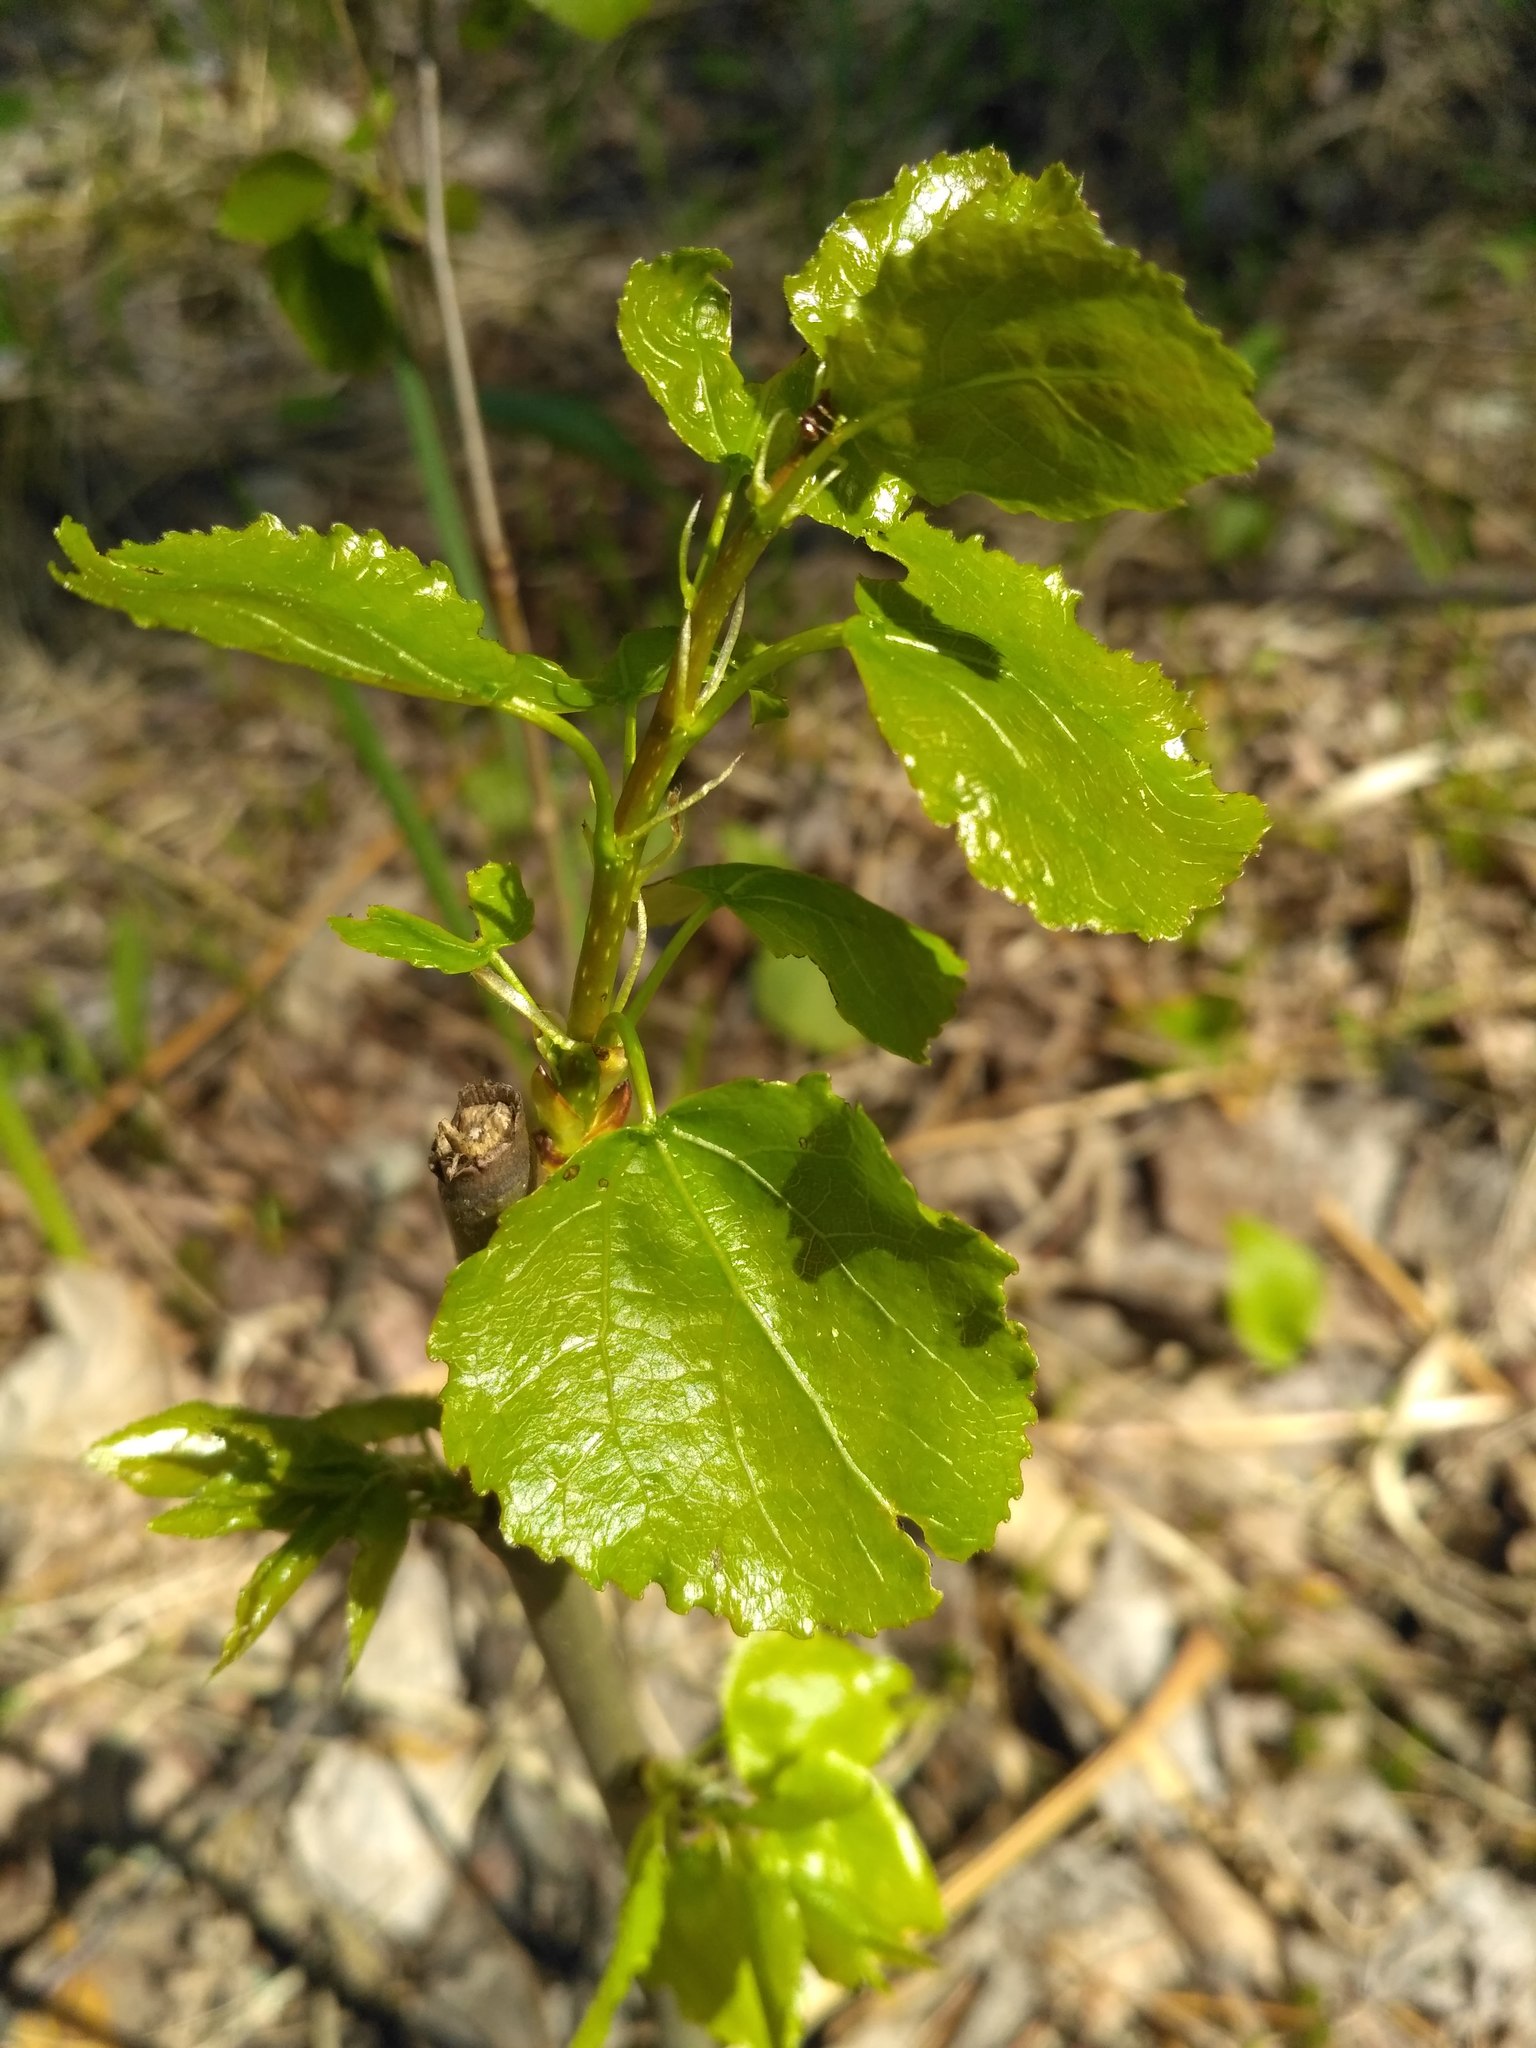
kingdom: Plantae
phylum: Tracheophyta
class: Magnoliopsida
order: Malpighiales
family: Salicaceae
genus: Populus
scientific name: Populus tremula
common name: European aspen
